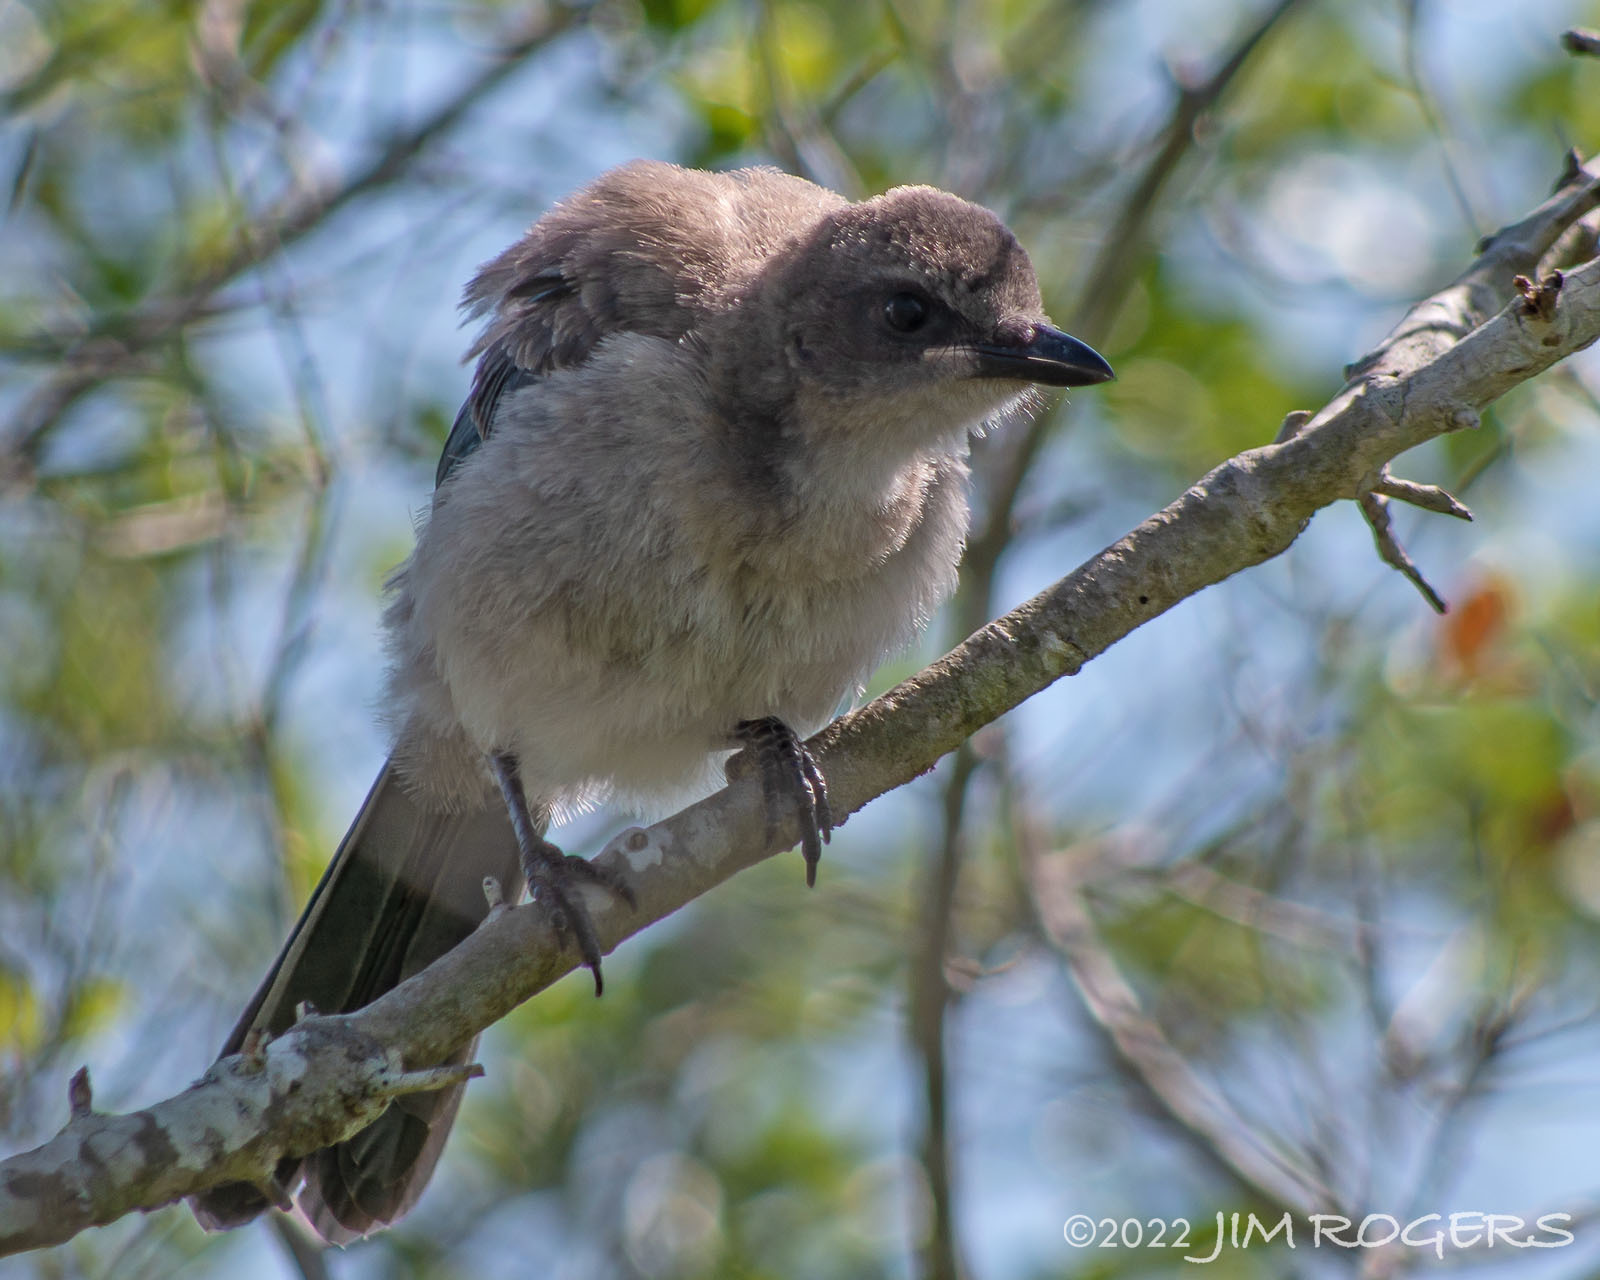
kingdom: Animalia
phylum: Chordata
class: Aves
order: Passeriformes
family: Corvidae
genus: Aphelocoma
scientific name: Aphelocoma coerulescens
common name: Florida scrub jay
